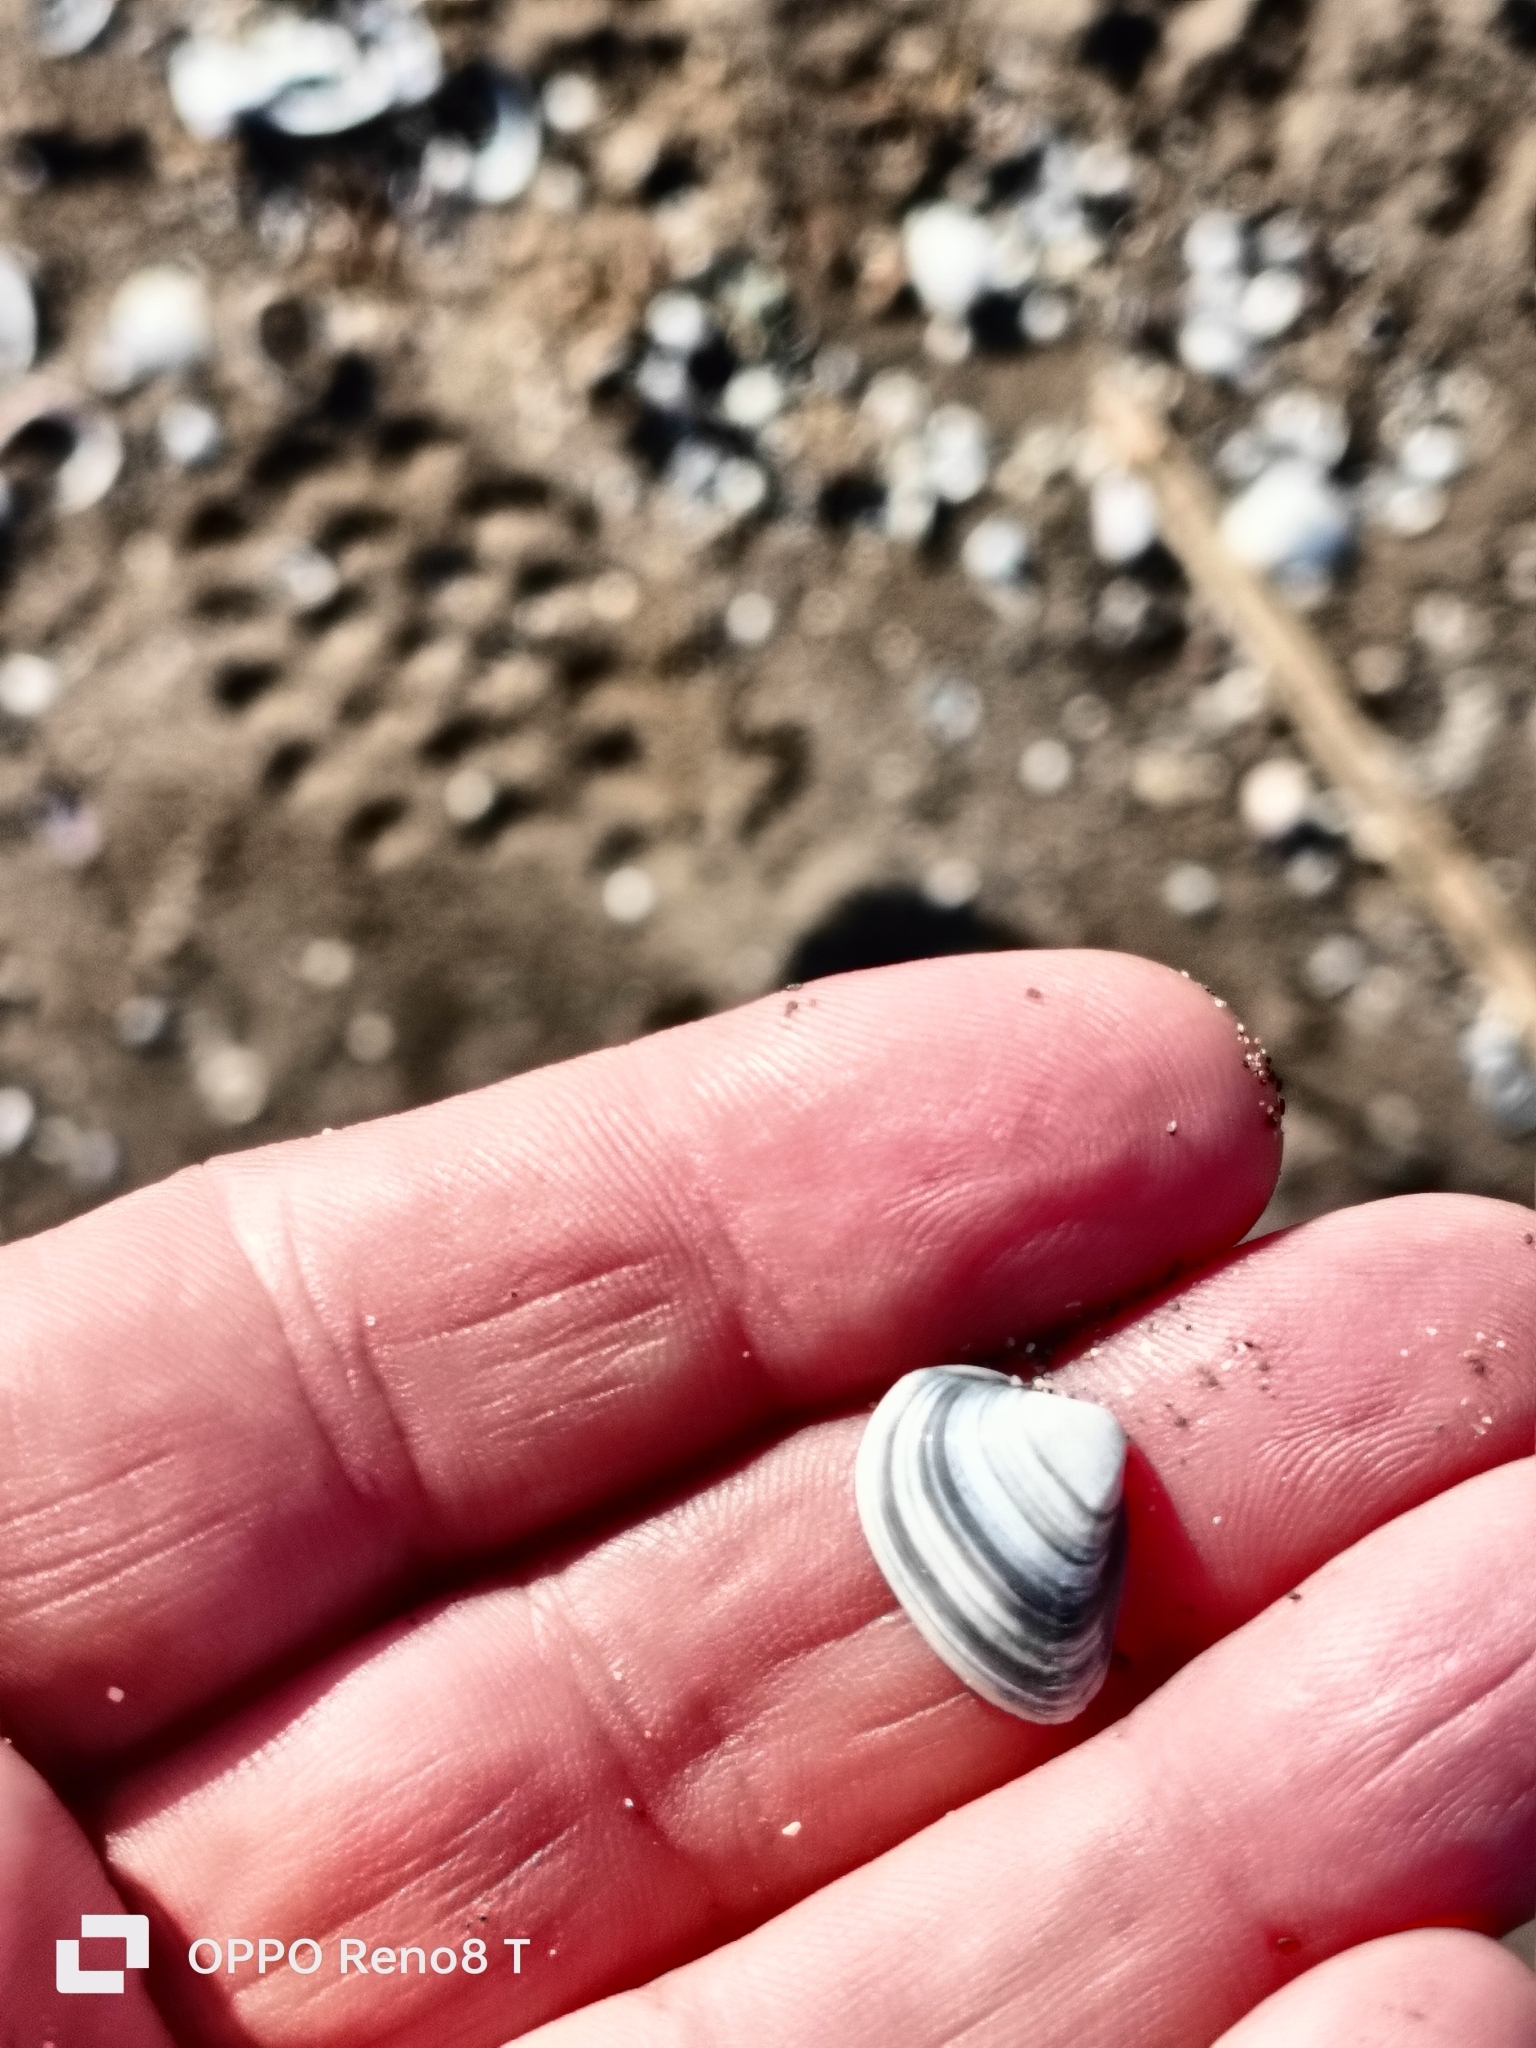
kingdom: Animalia
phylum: Mollusca
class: Bivalvia
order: Venerida
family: Mactridae
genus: Spisula
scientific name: Spisula subtruncata
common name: Cut trough shell
